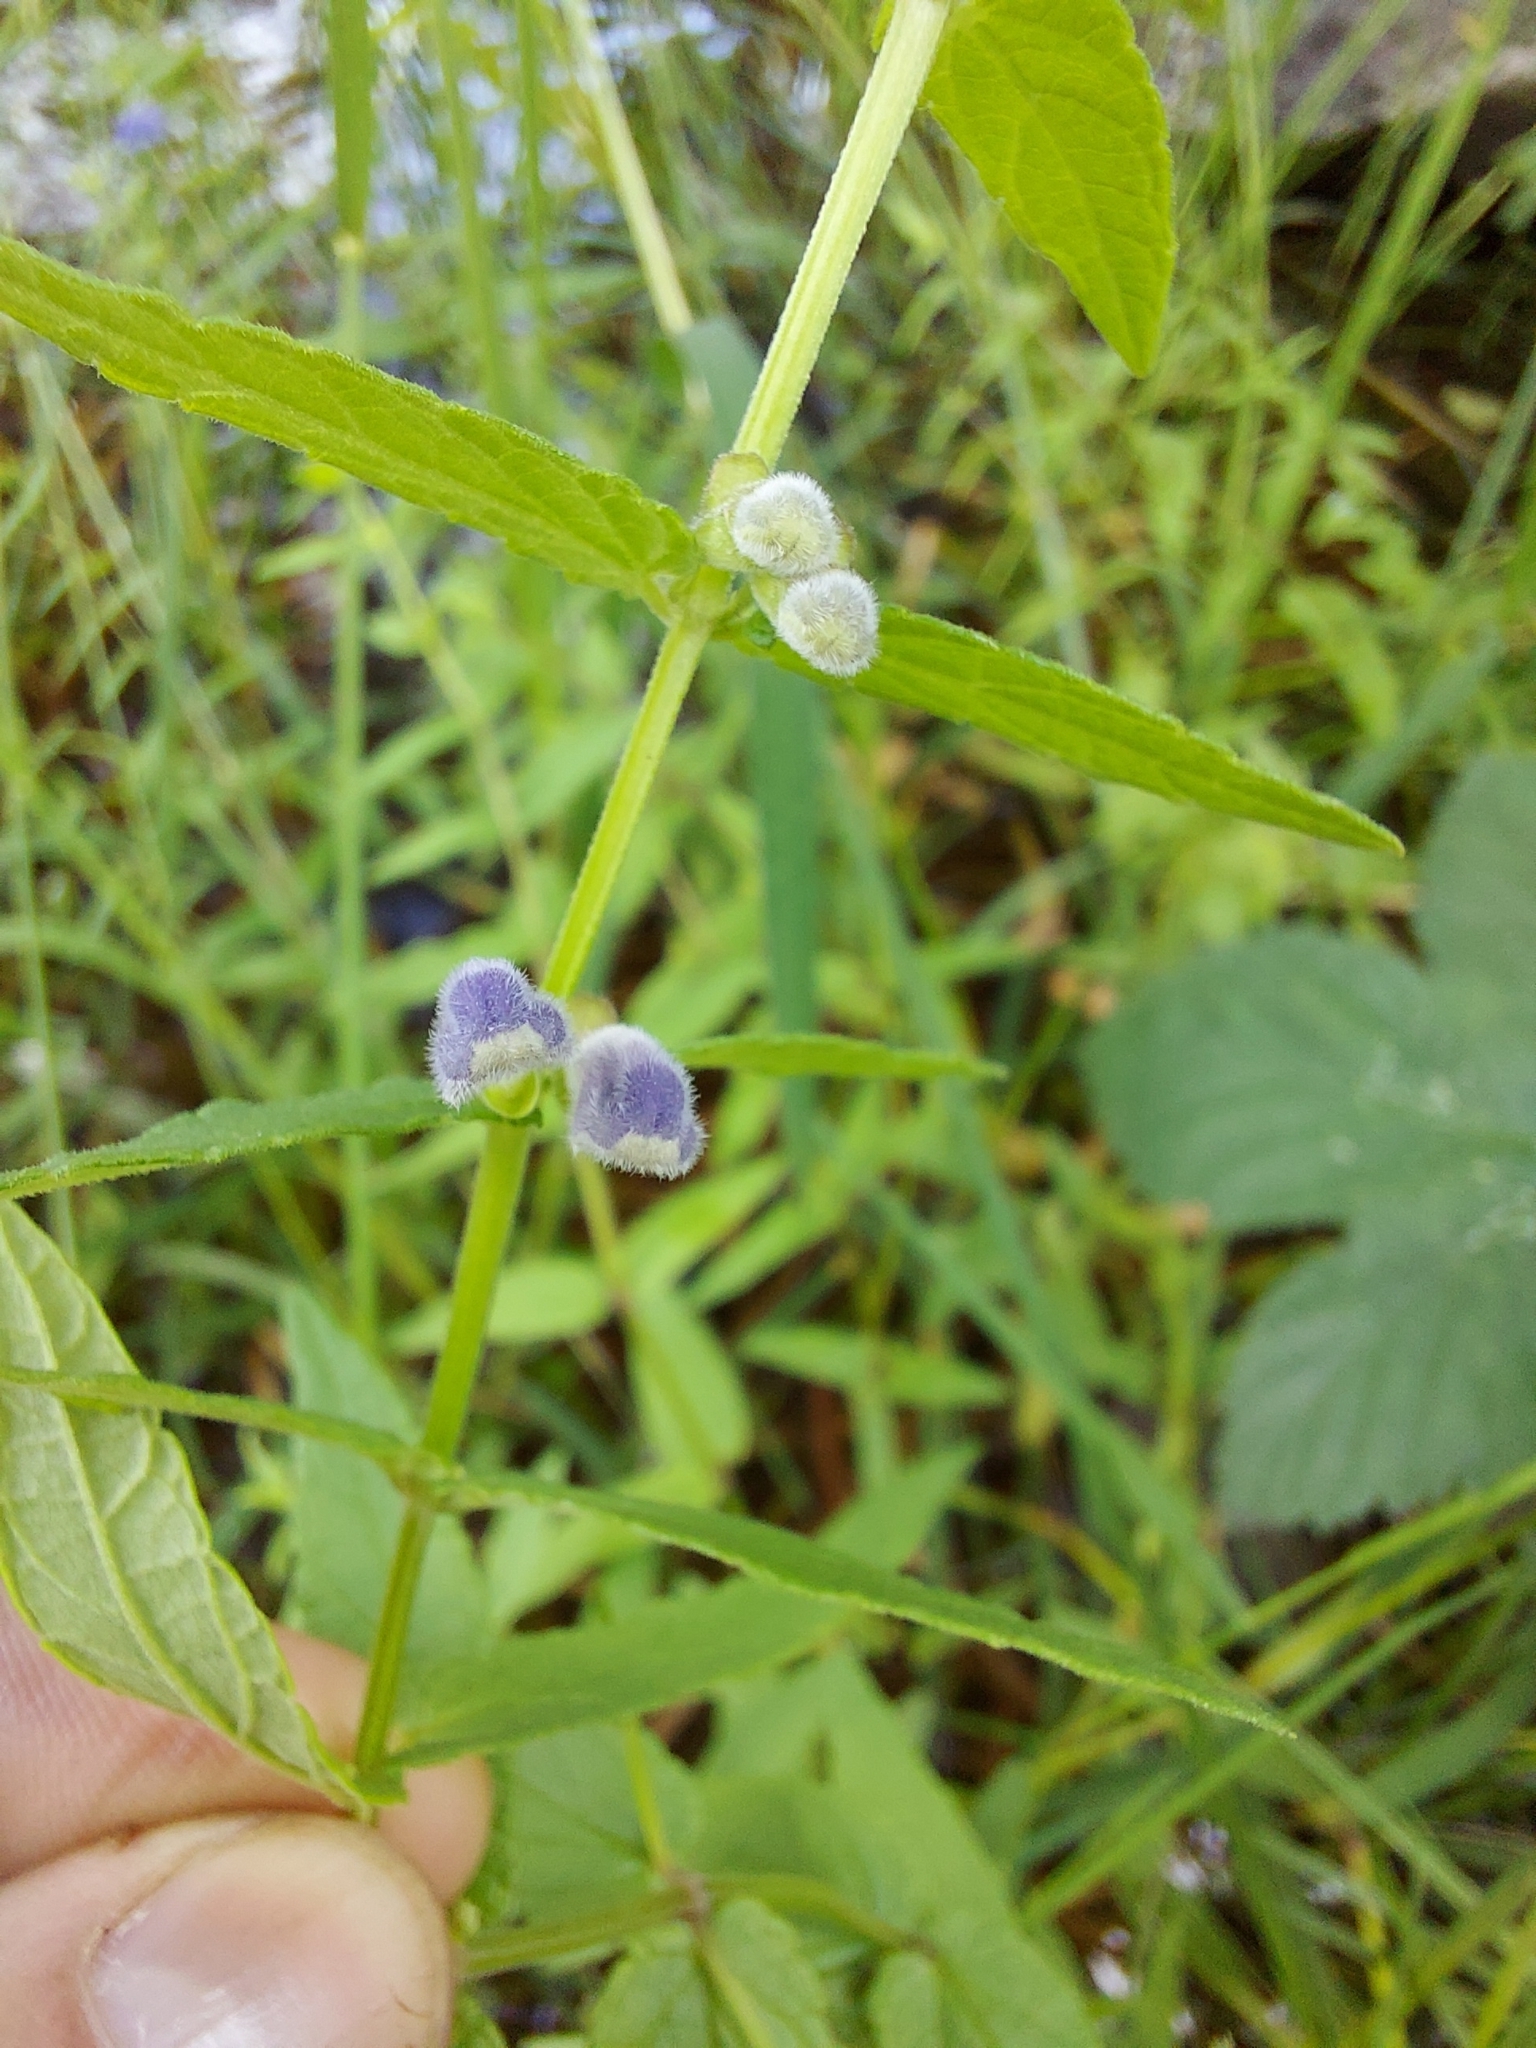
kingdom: Plantae
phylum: Tracheophyta
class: Magnoliopsida
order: Lamiales
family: Lamiaceae
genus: Scutellaria
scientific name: Scutellaria galericulata
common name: Skullcap
